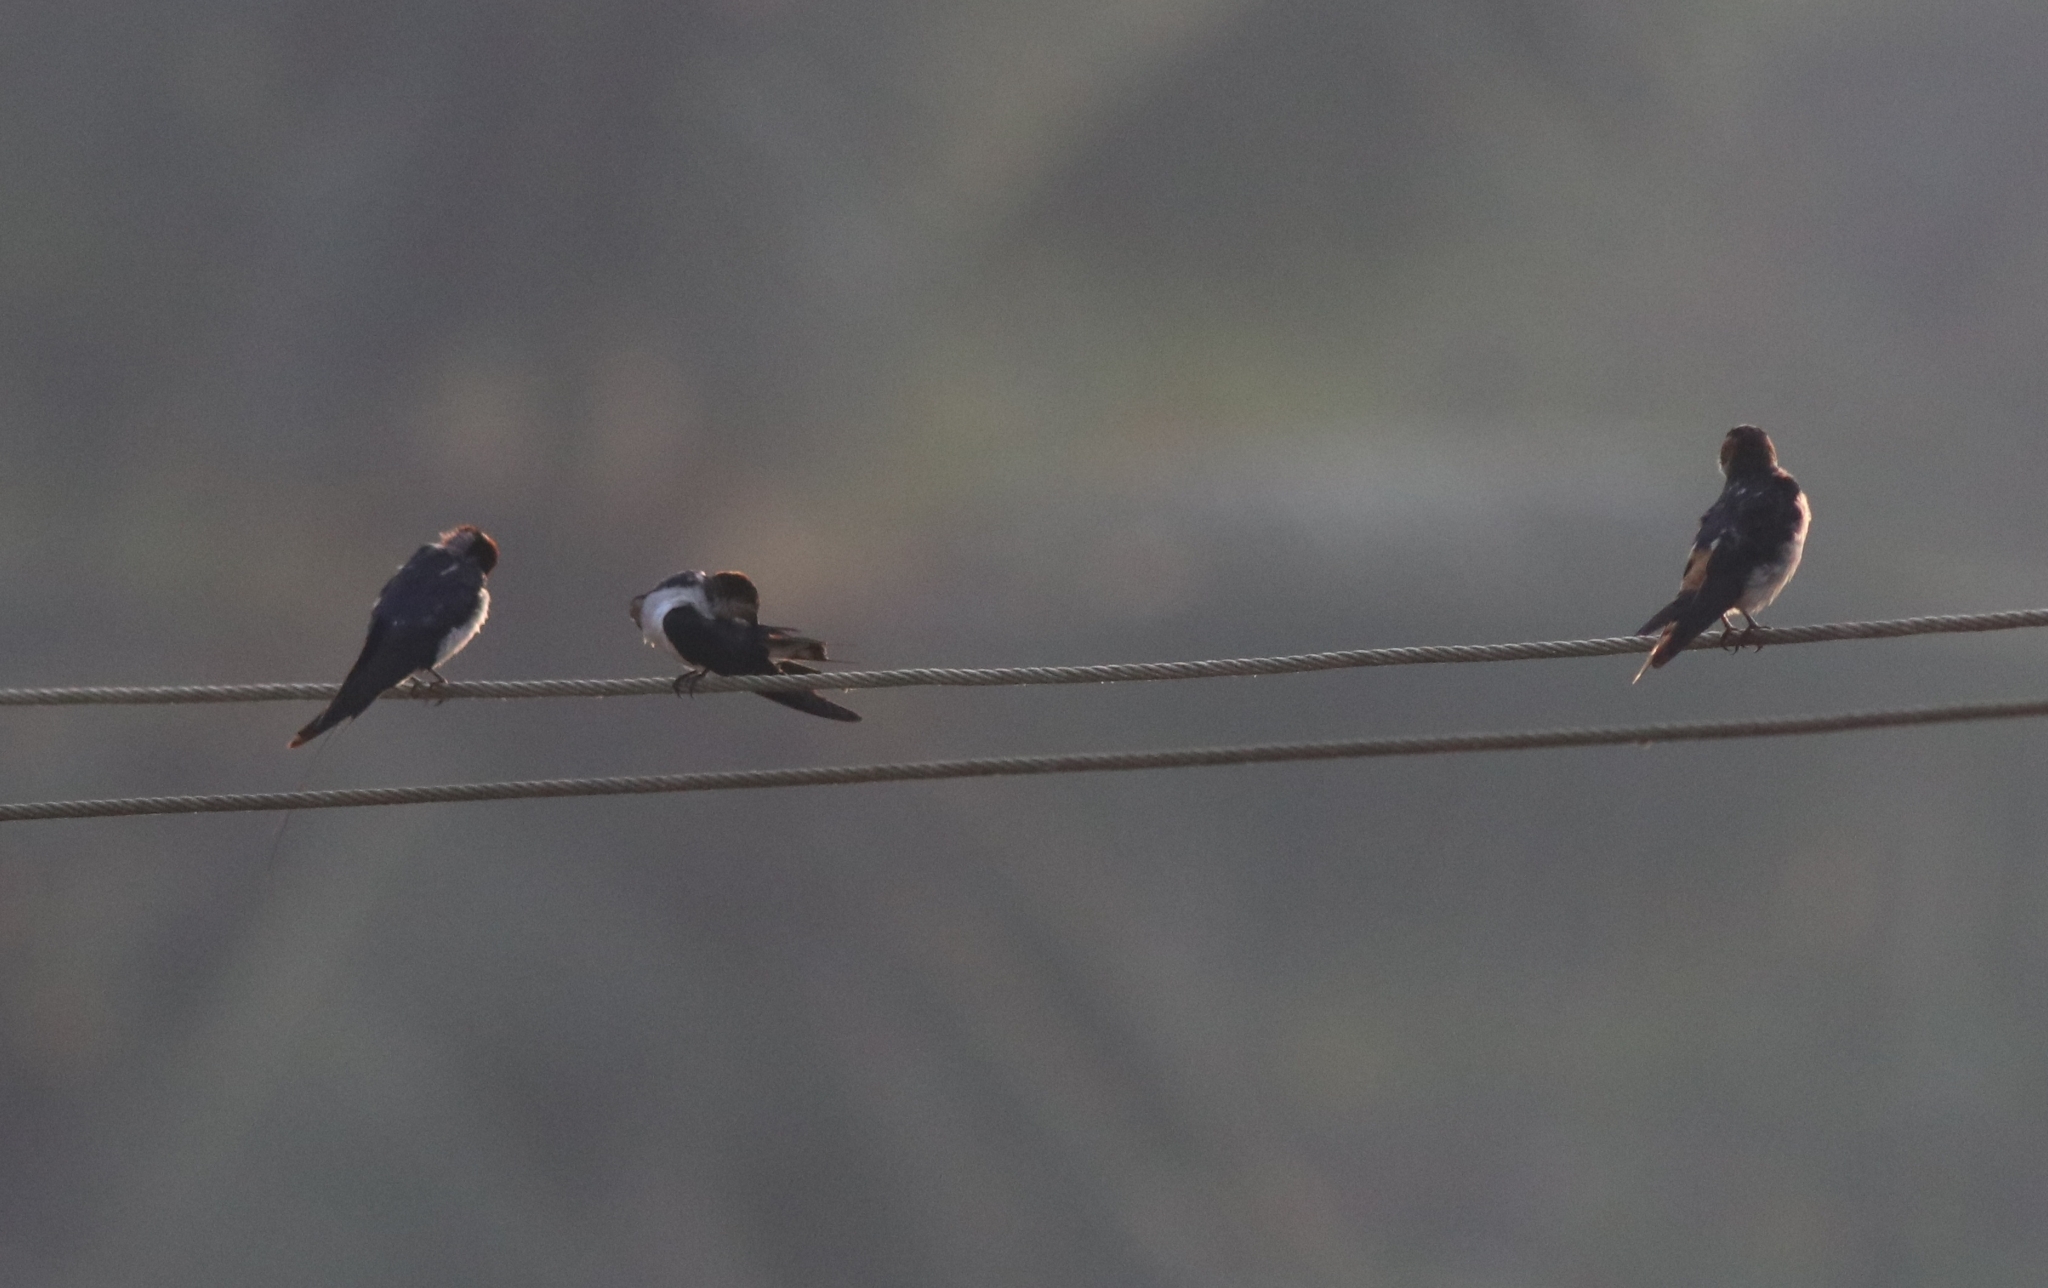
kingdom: Animalia
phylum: Chordata
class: Aves
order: Passeriformes
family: Hirundinidae
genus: Hirundo
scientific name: Hirundo smithii
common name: Wire-tailed swallow
